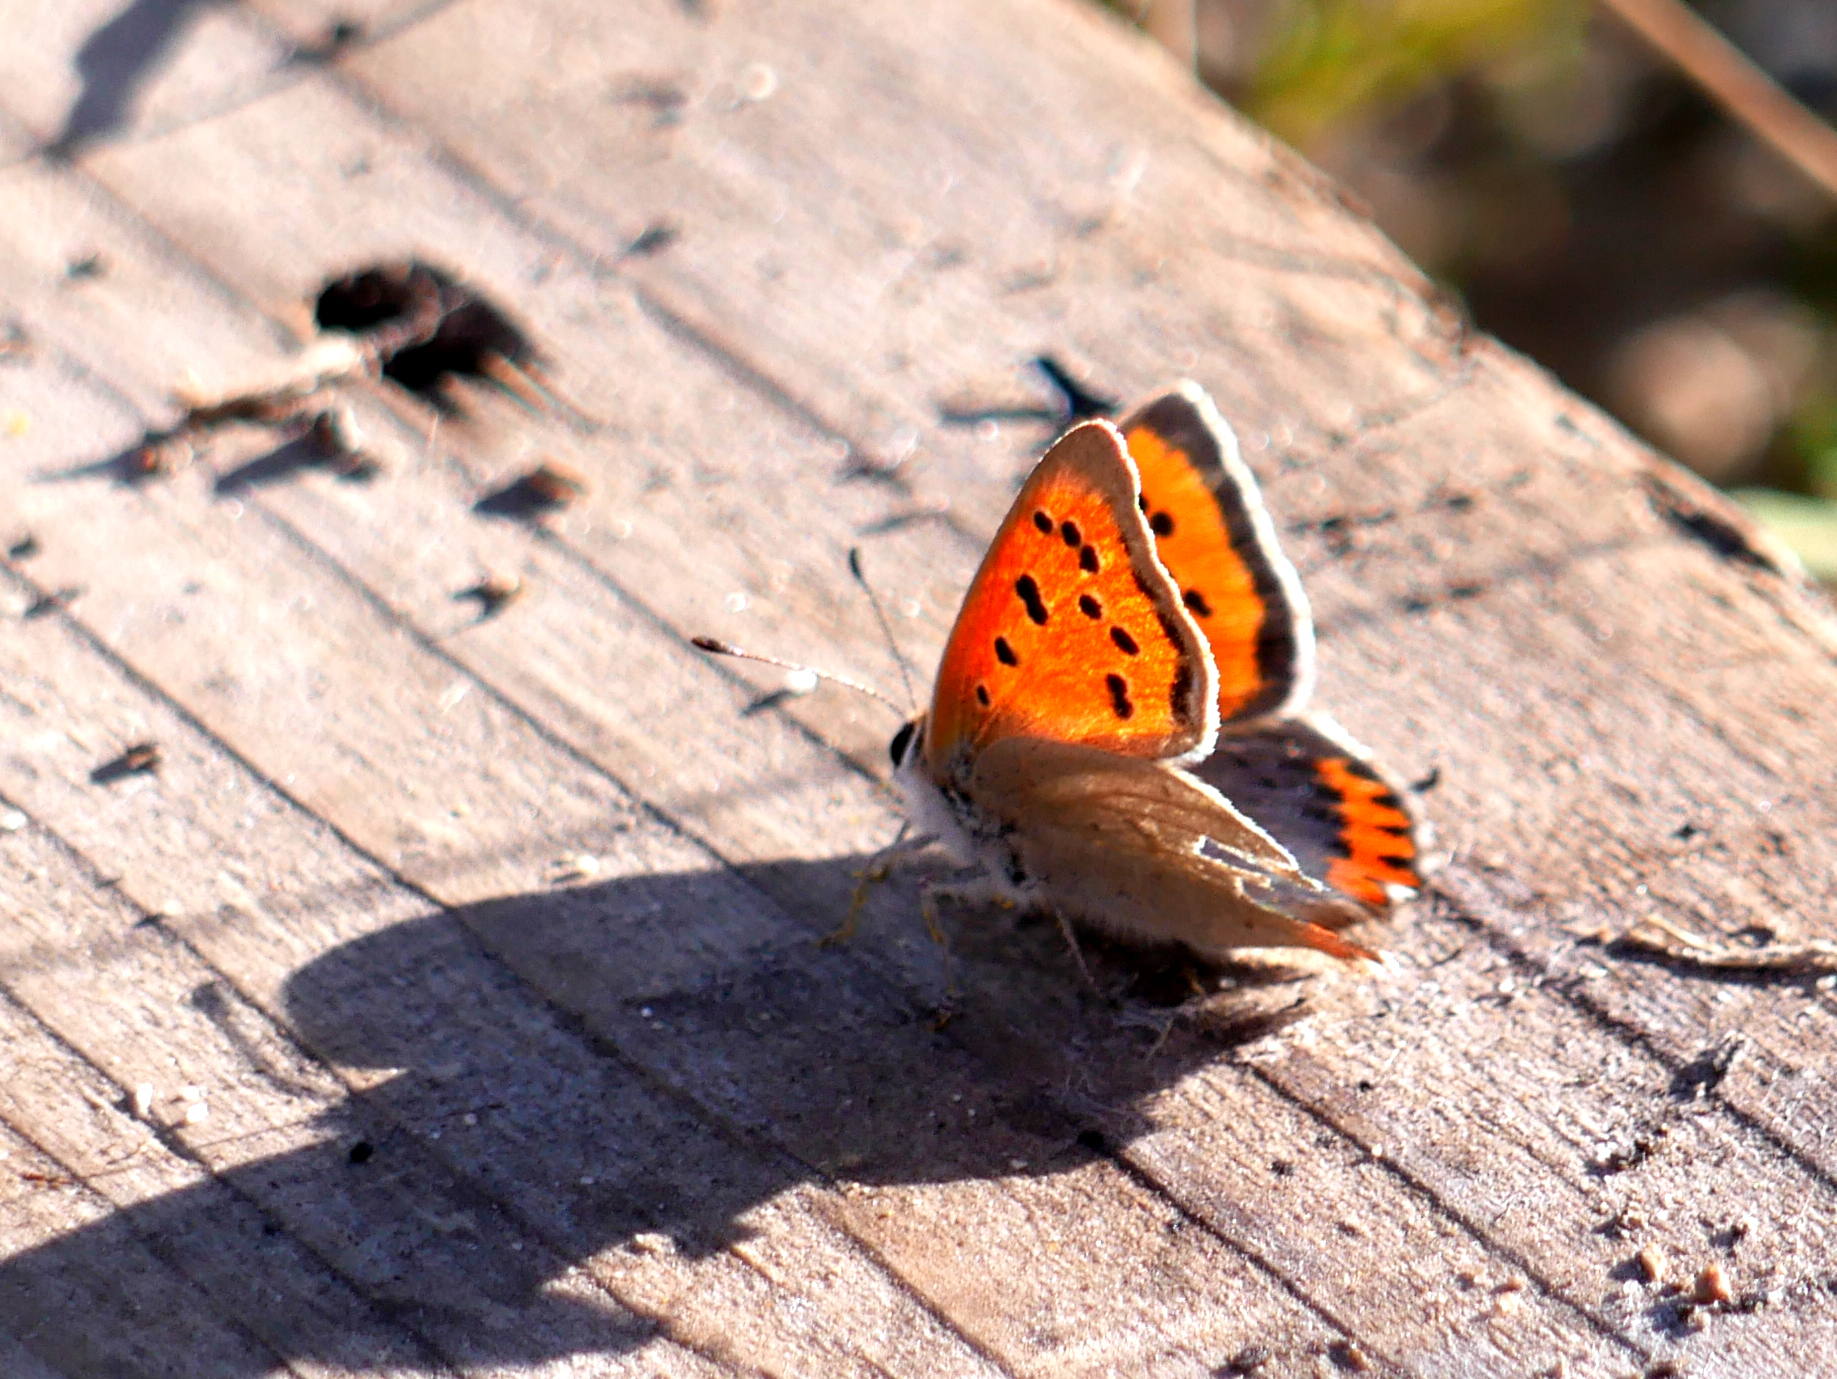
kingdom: Animalia
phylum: Arthropoda
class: Insecta
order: Lepidoptera
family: Lycaenidae
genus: Lycaena
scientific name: Lycaena phlaeas
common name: Small copper
